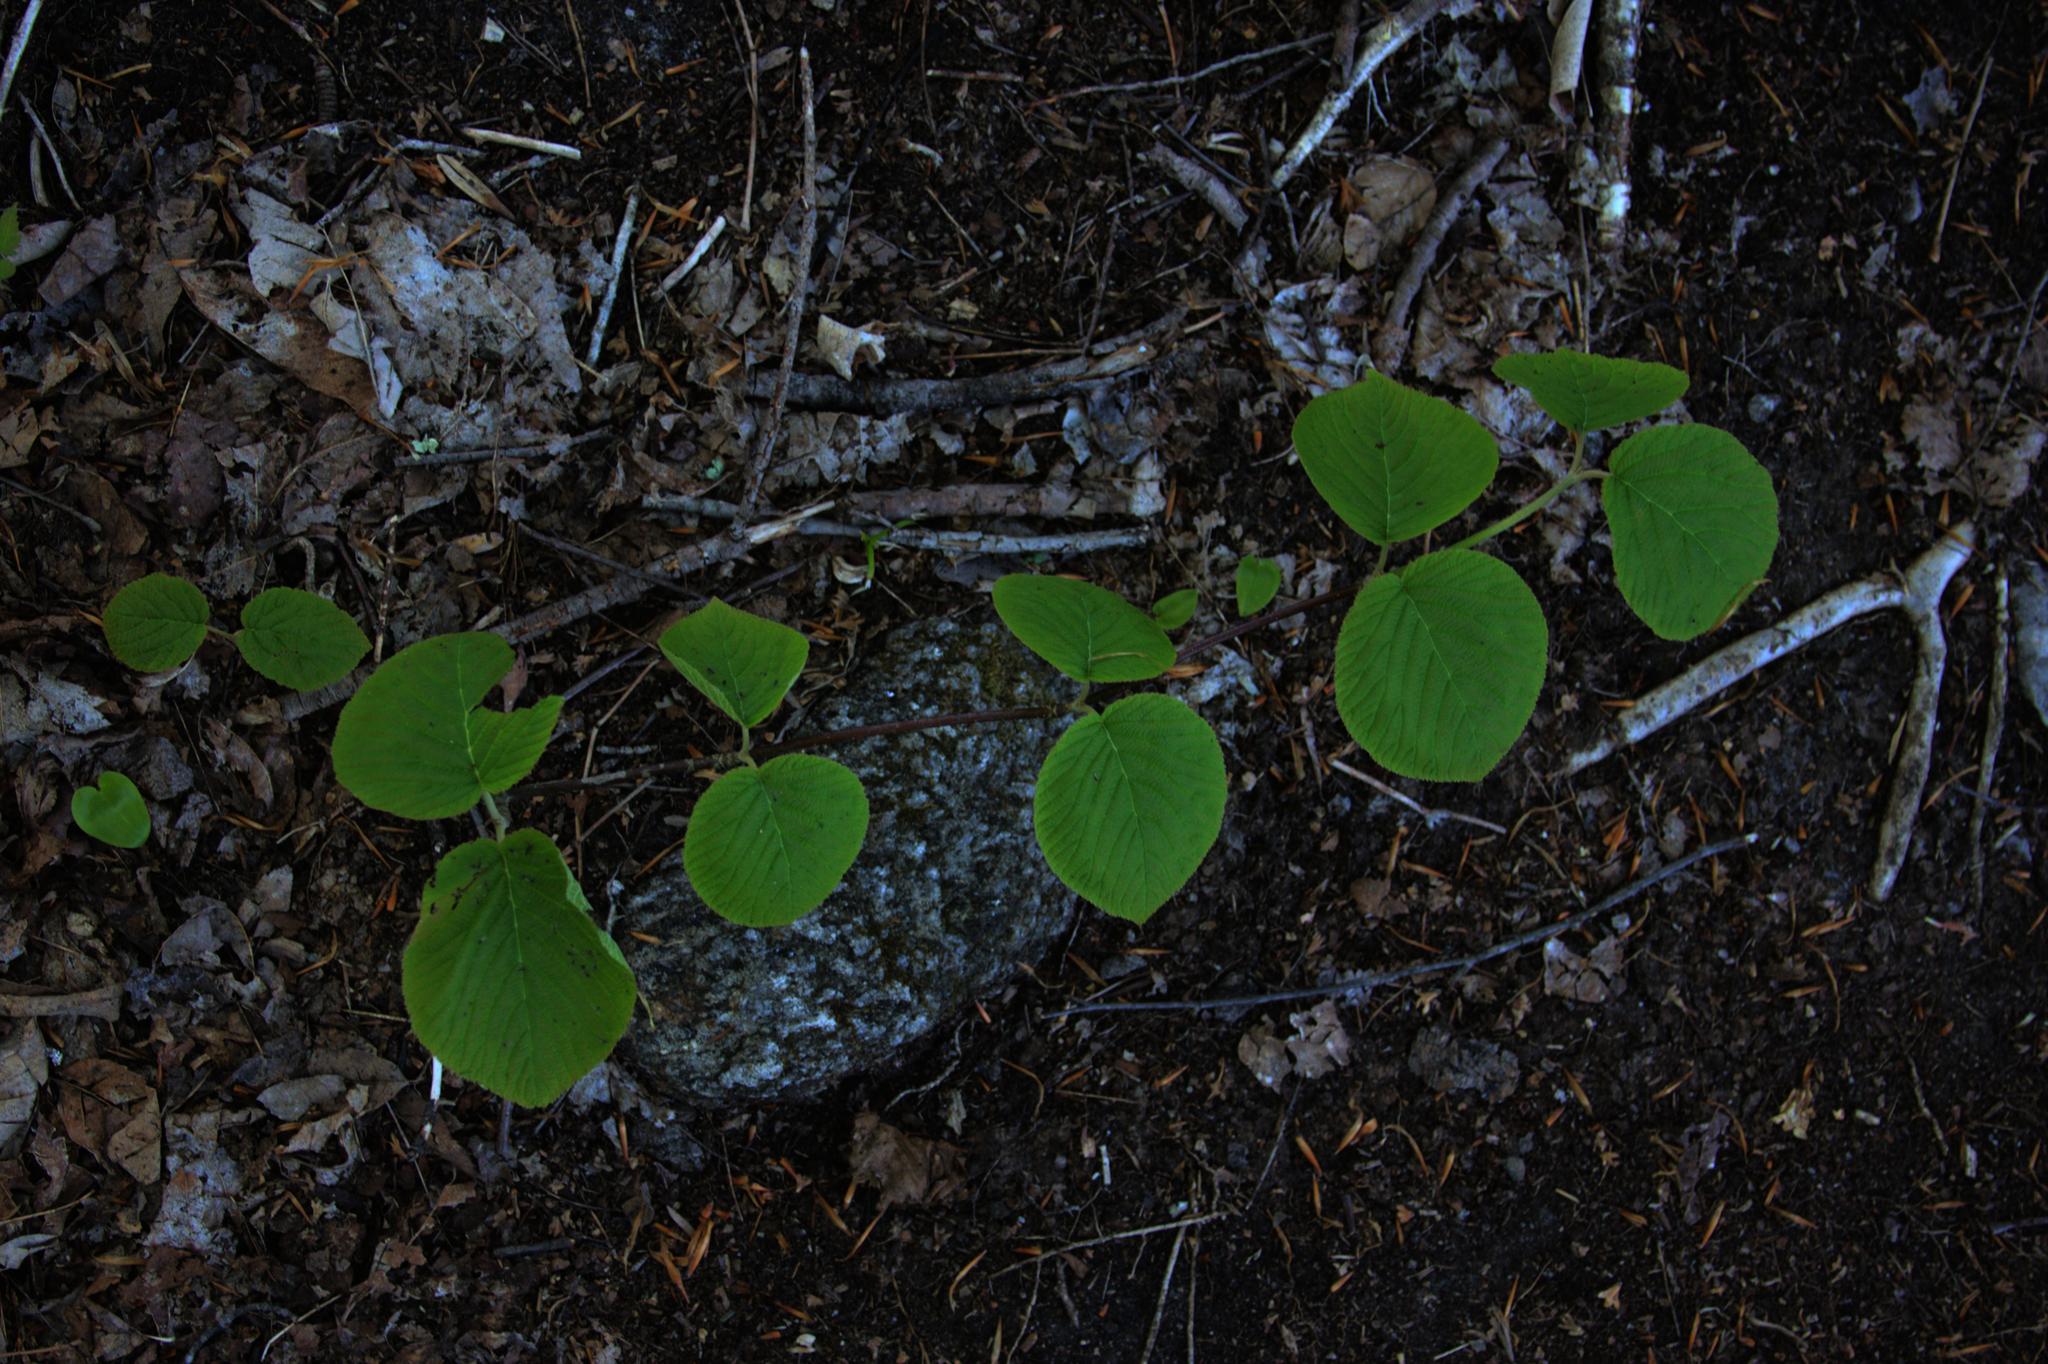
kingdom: Plantae
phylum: Tracheophyta
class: Magnoliopsida
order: Dipsacales
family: Viburnaceae
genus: Viburnum
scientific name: Viburnum lantanoides
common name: Hobblebush
